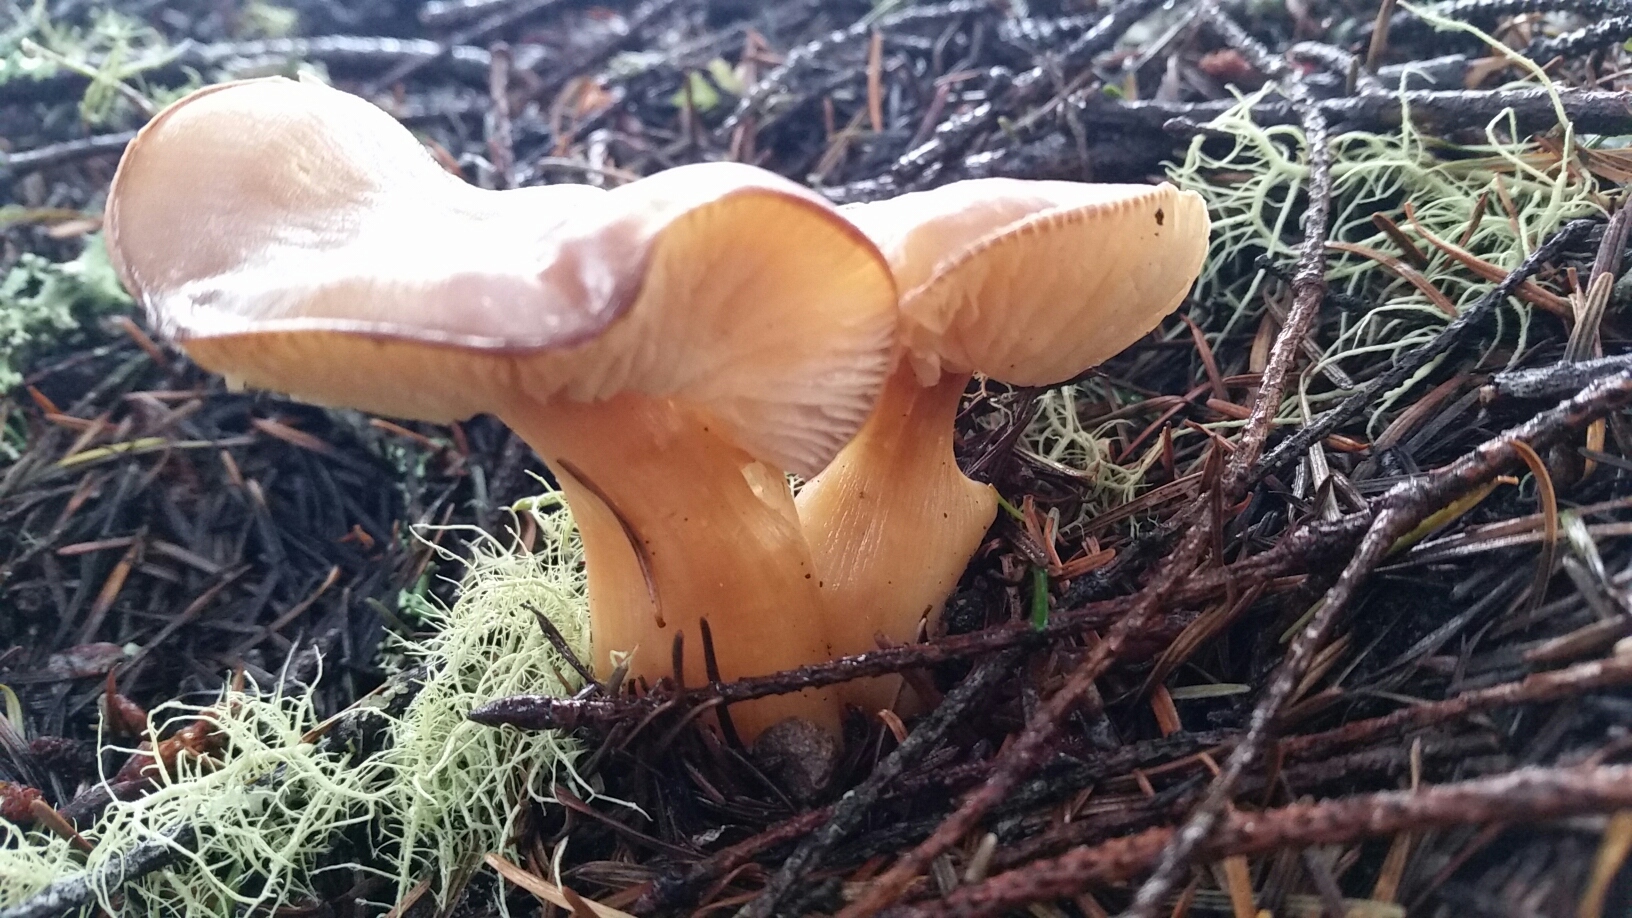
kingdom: Fungi
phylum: Basidiomycota
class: Agaricomycetes
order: Agaricales
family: Omphalotaceae
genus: Rhodocollybia
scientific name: Rhodocollybia butyracea
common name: Butter cap
